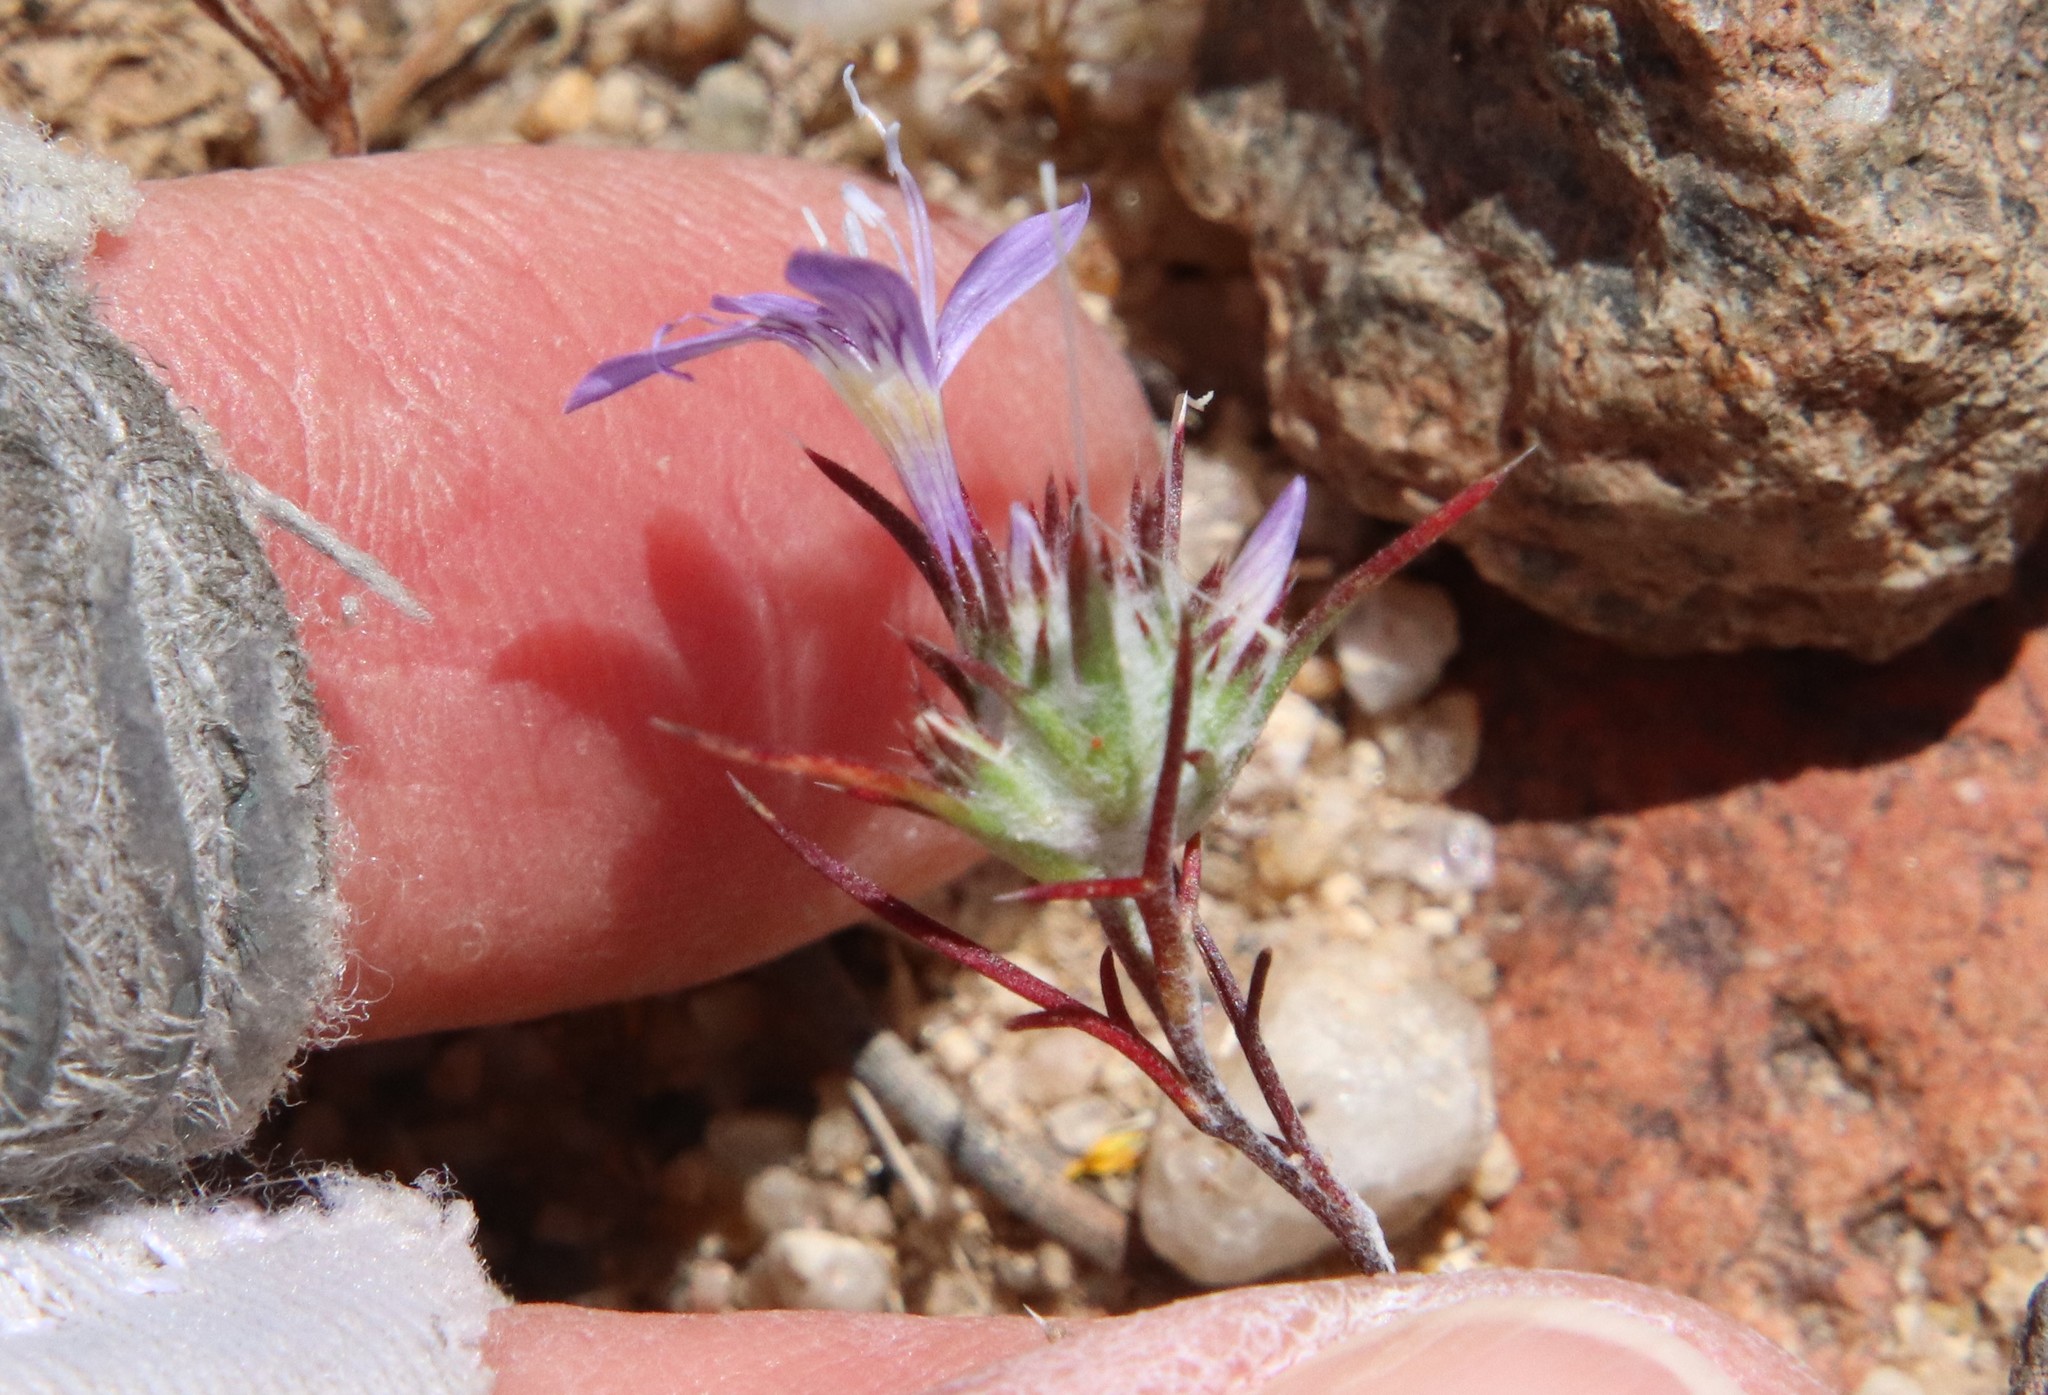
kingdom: Plantae
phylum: Tracheophyta
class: Magnoliopsida
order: Ericales
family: Polemoniaceae
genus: Eriastrum
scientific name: Eriastrum eremicum
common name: Desert eriastrum
